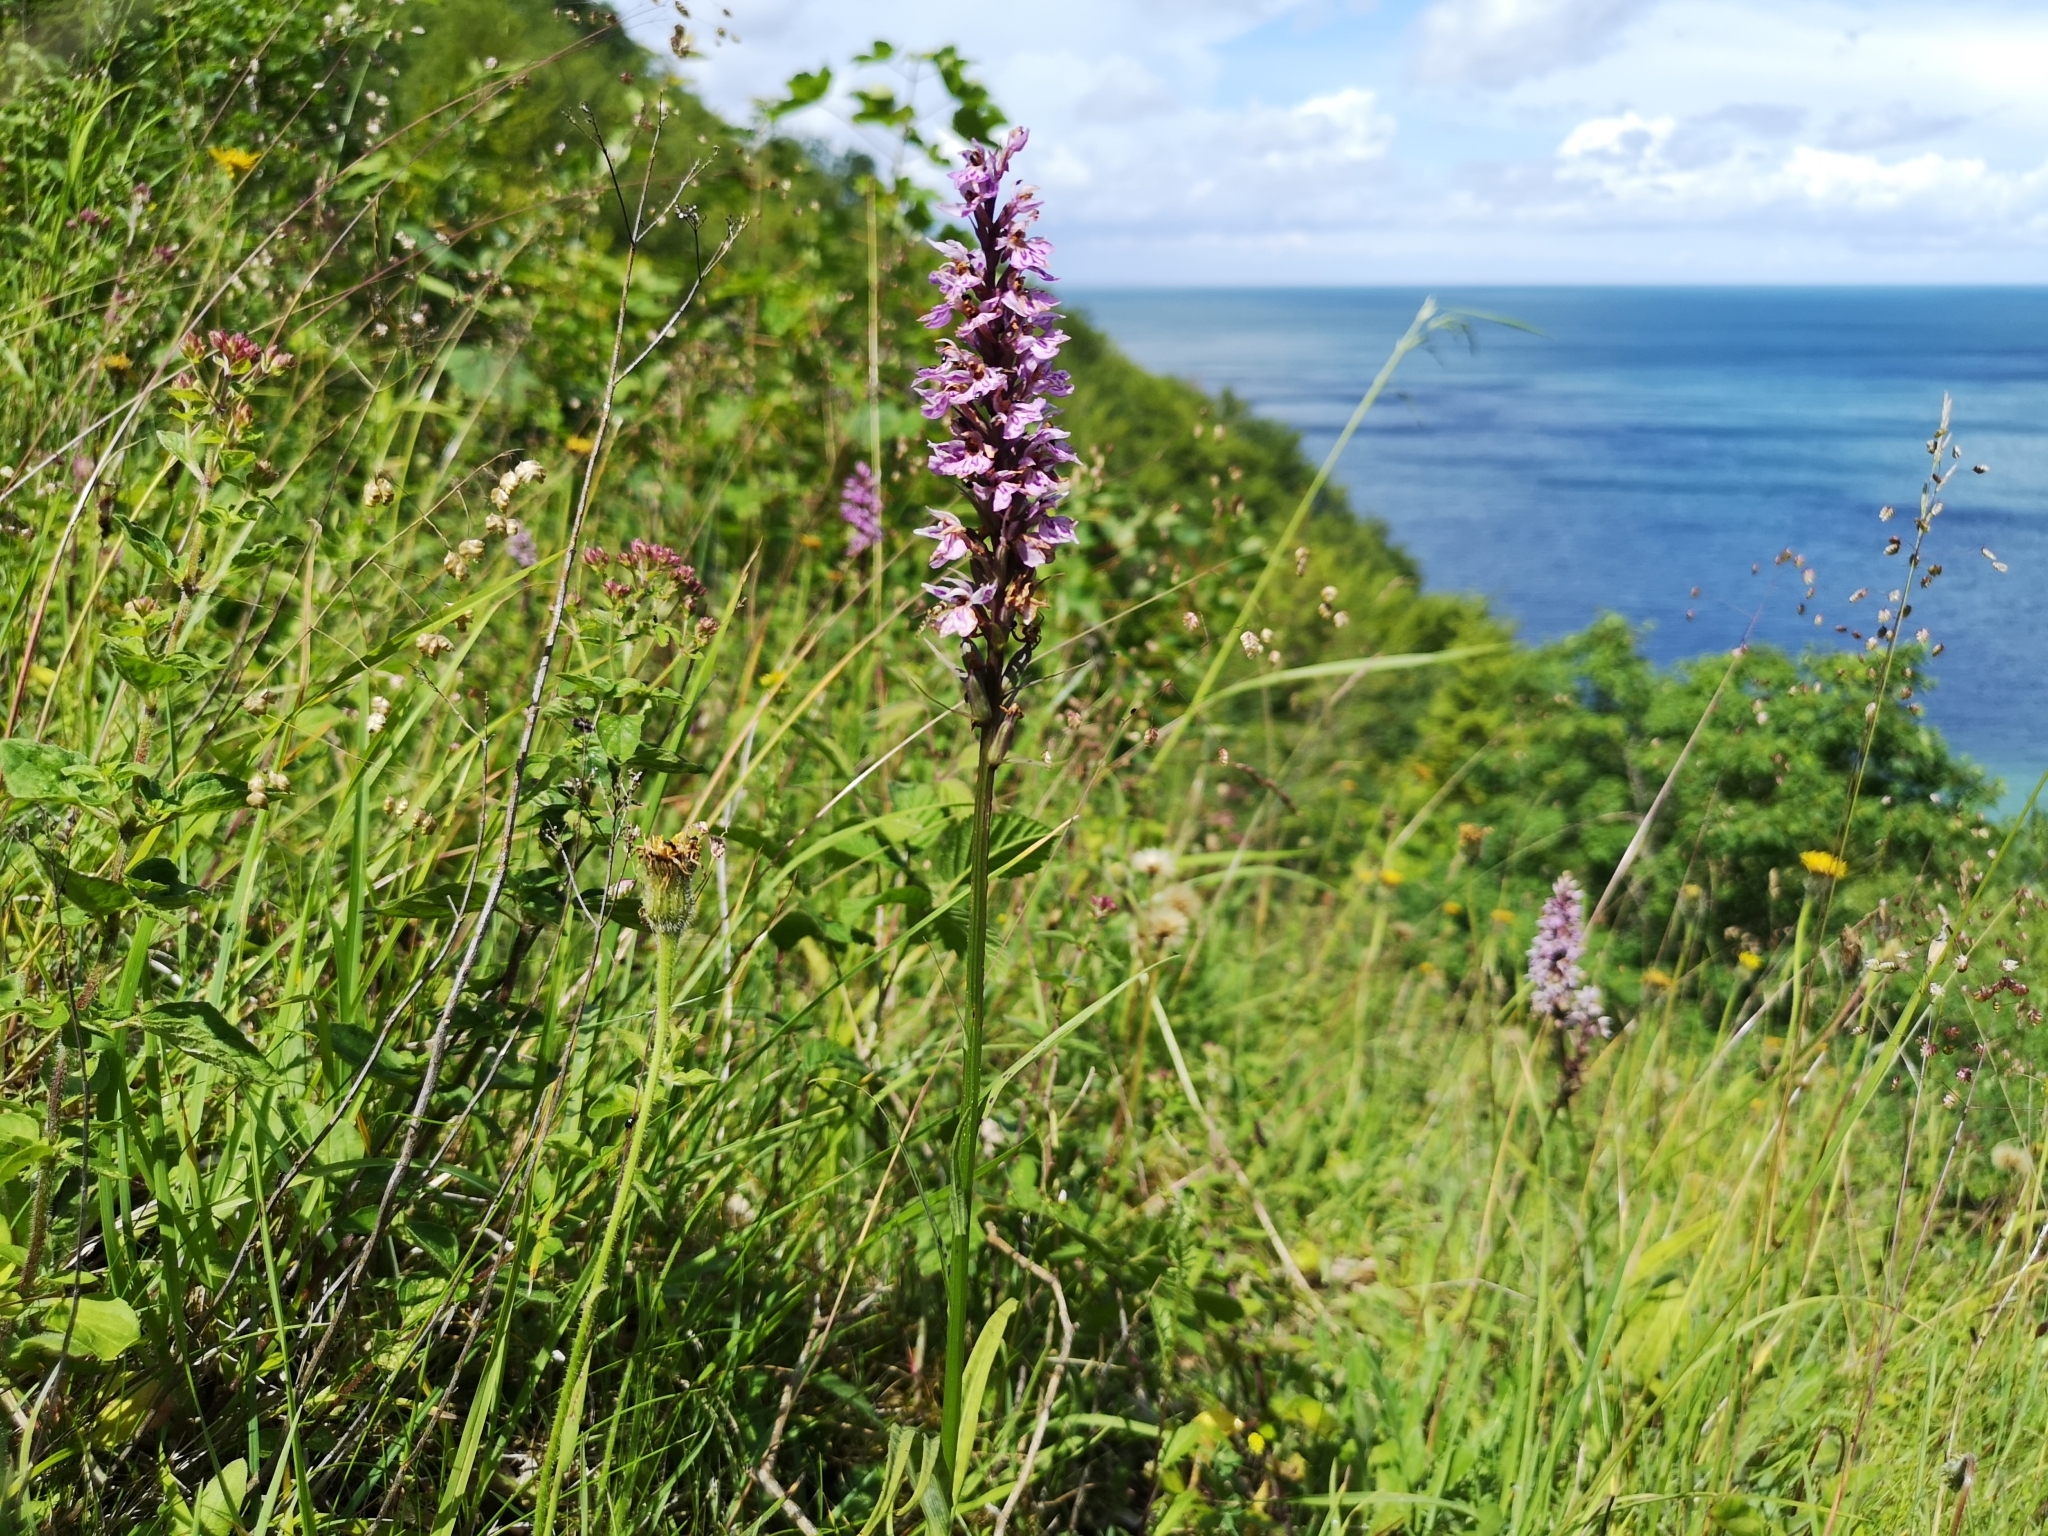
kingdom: Plantae
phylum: Tracheophyta
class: Liliopsida
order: Asparagales
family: Orchidaceae
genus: Dactylorhiza
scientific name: Dactylorhiza maculata
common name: Heath spotted-orchid
